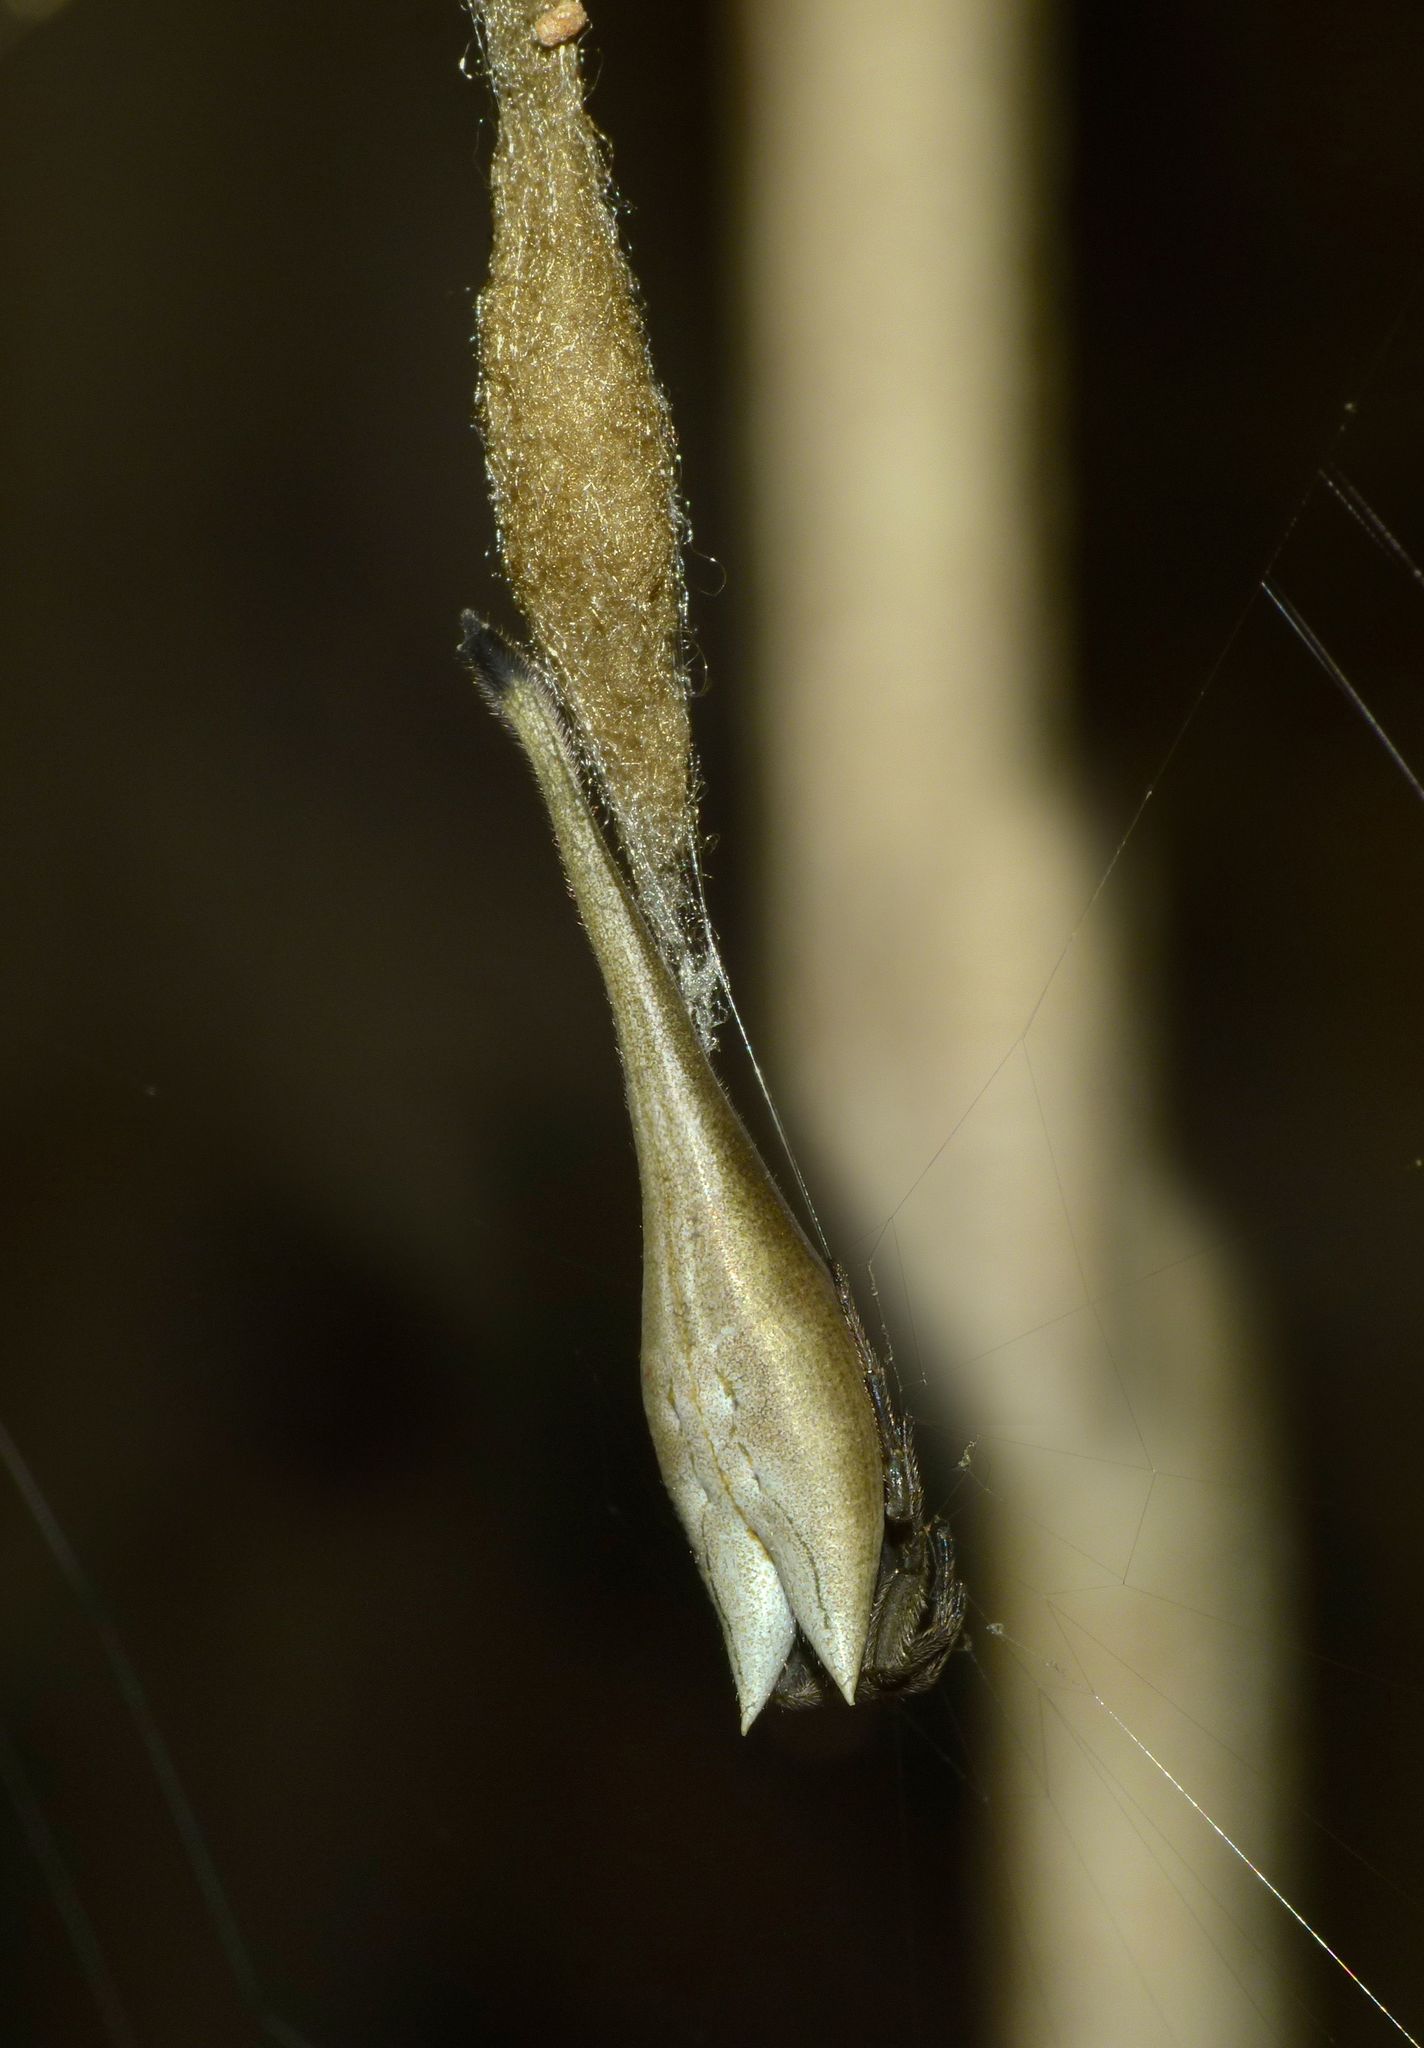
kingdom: Animalia
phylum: Arthropoda
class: Arachnida
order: Araneae
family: Araneidae
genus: Arachnura
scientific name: Arachnura feredayi
